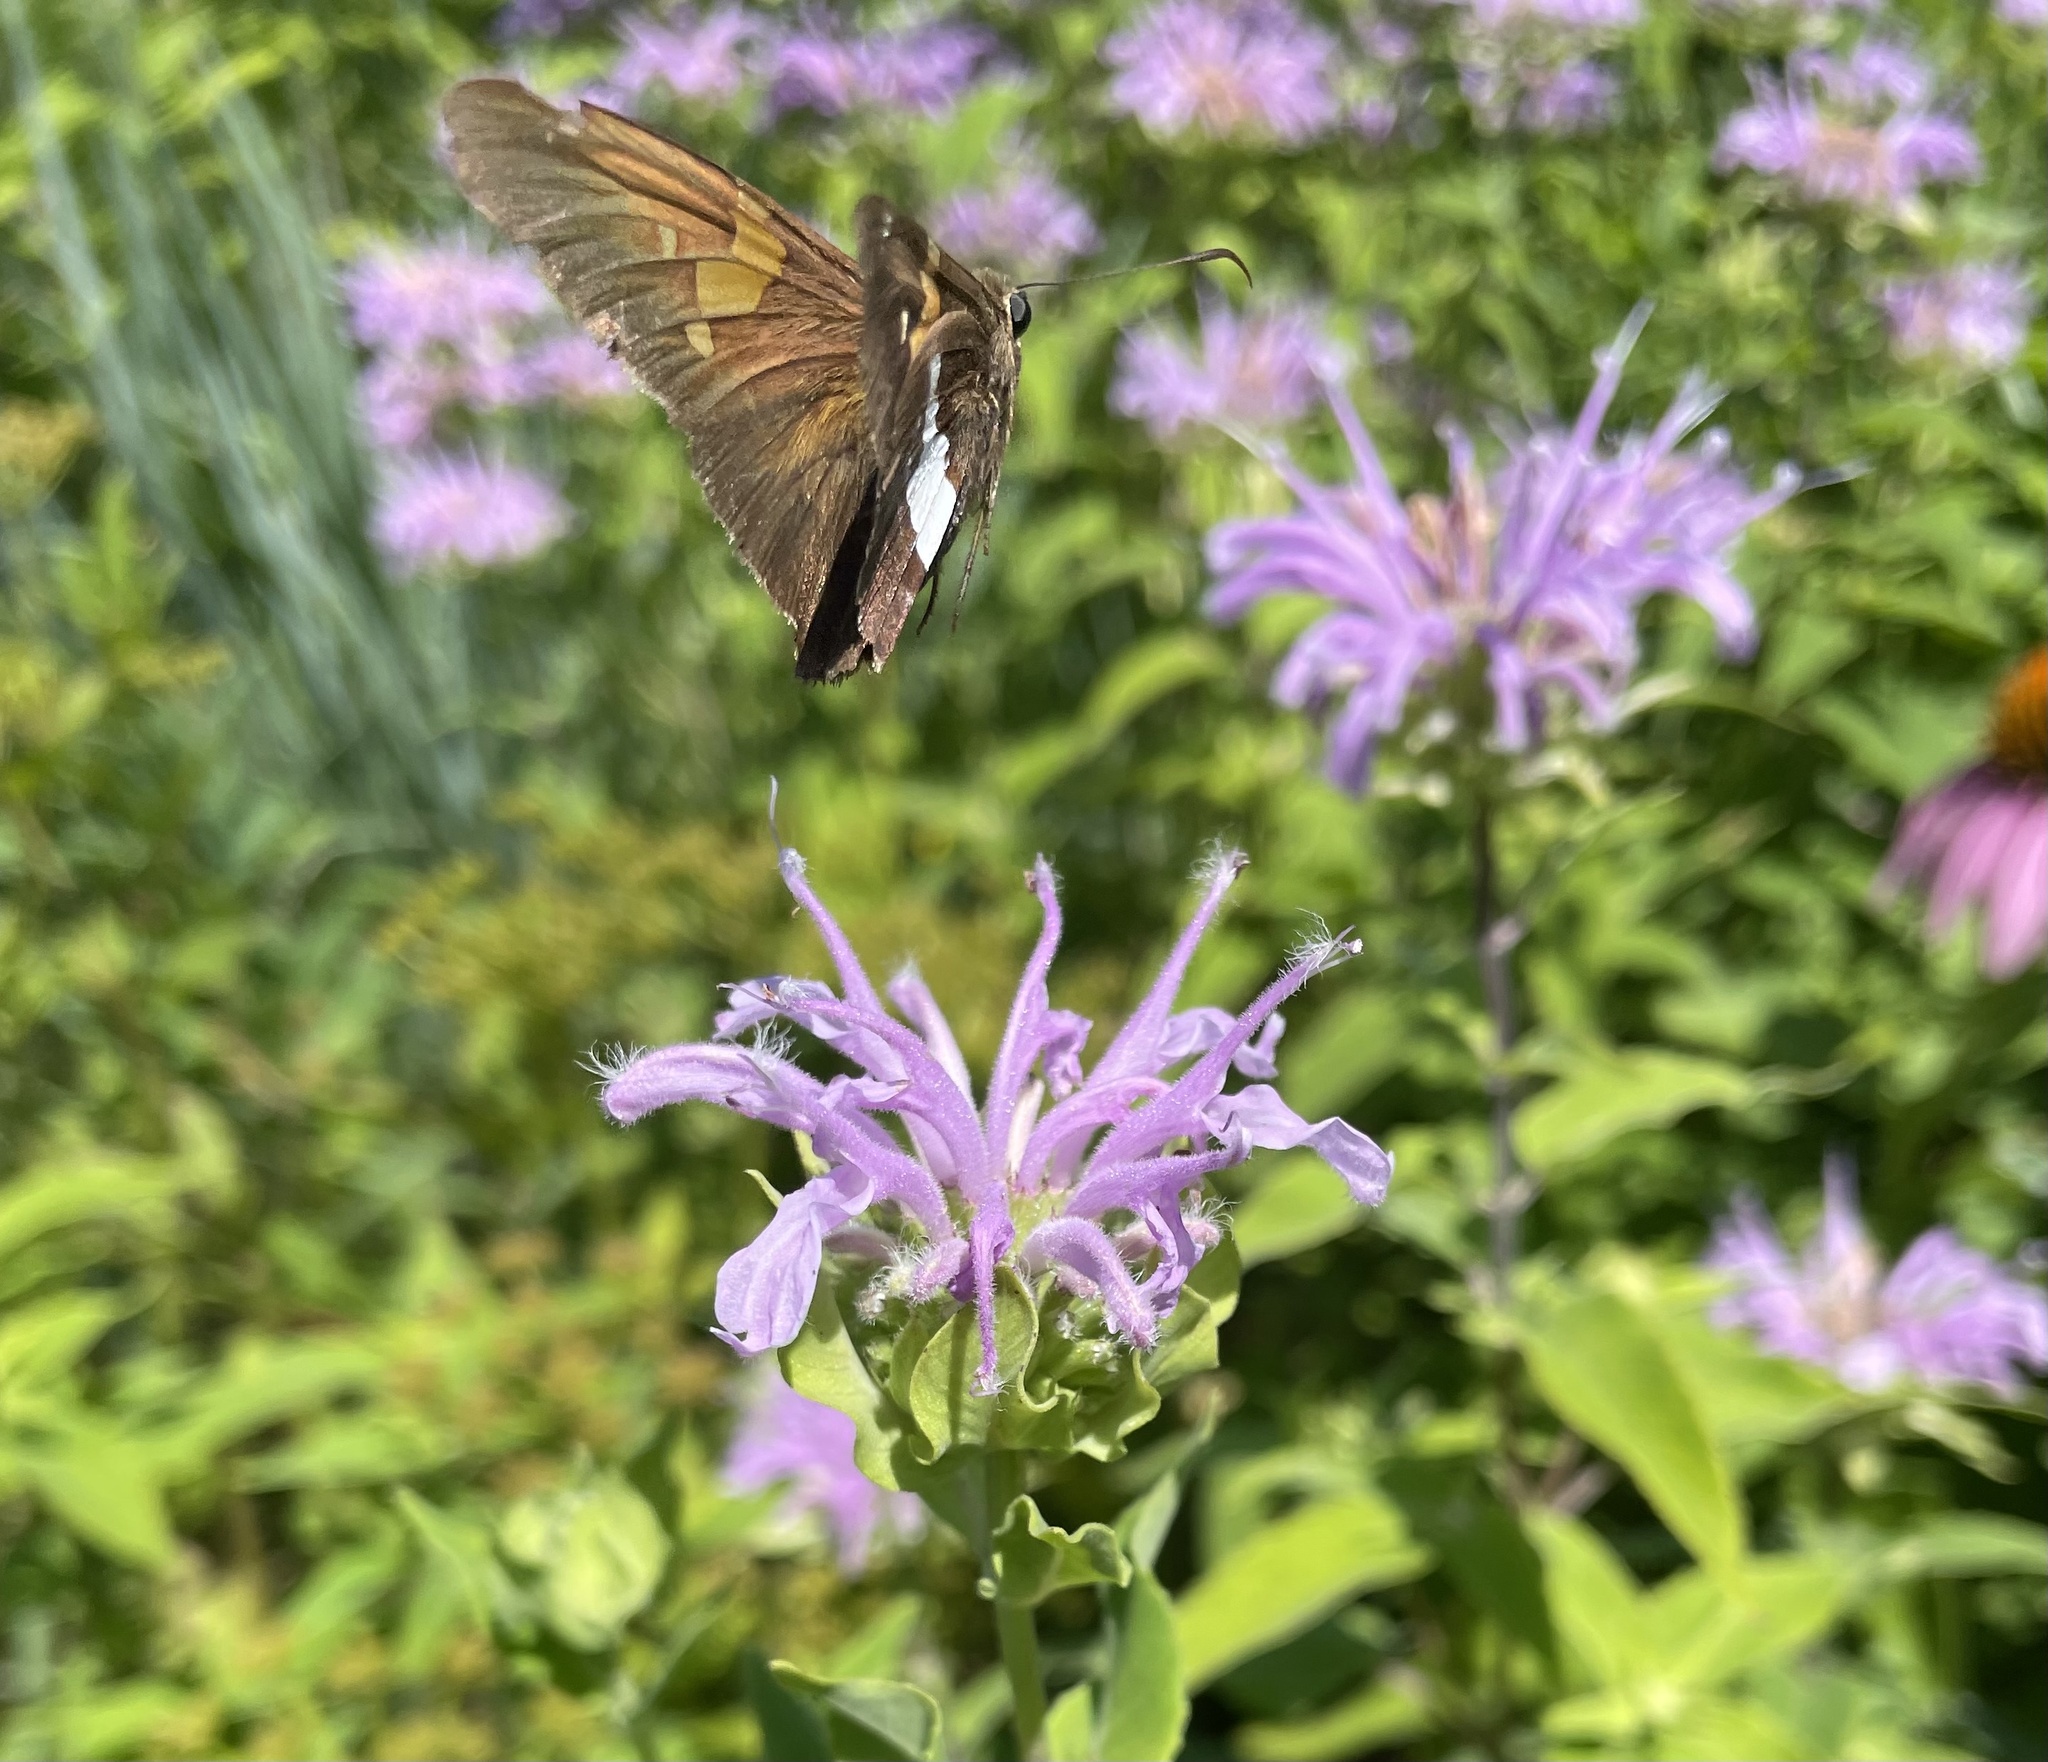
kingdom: Animalia
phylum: Arthropoda
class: Insecta
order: Lepidoptera
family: Hesperiidae
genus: Epargyreus
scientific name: Epargyreus clarus
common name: Silver-spotted skipper
